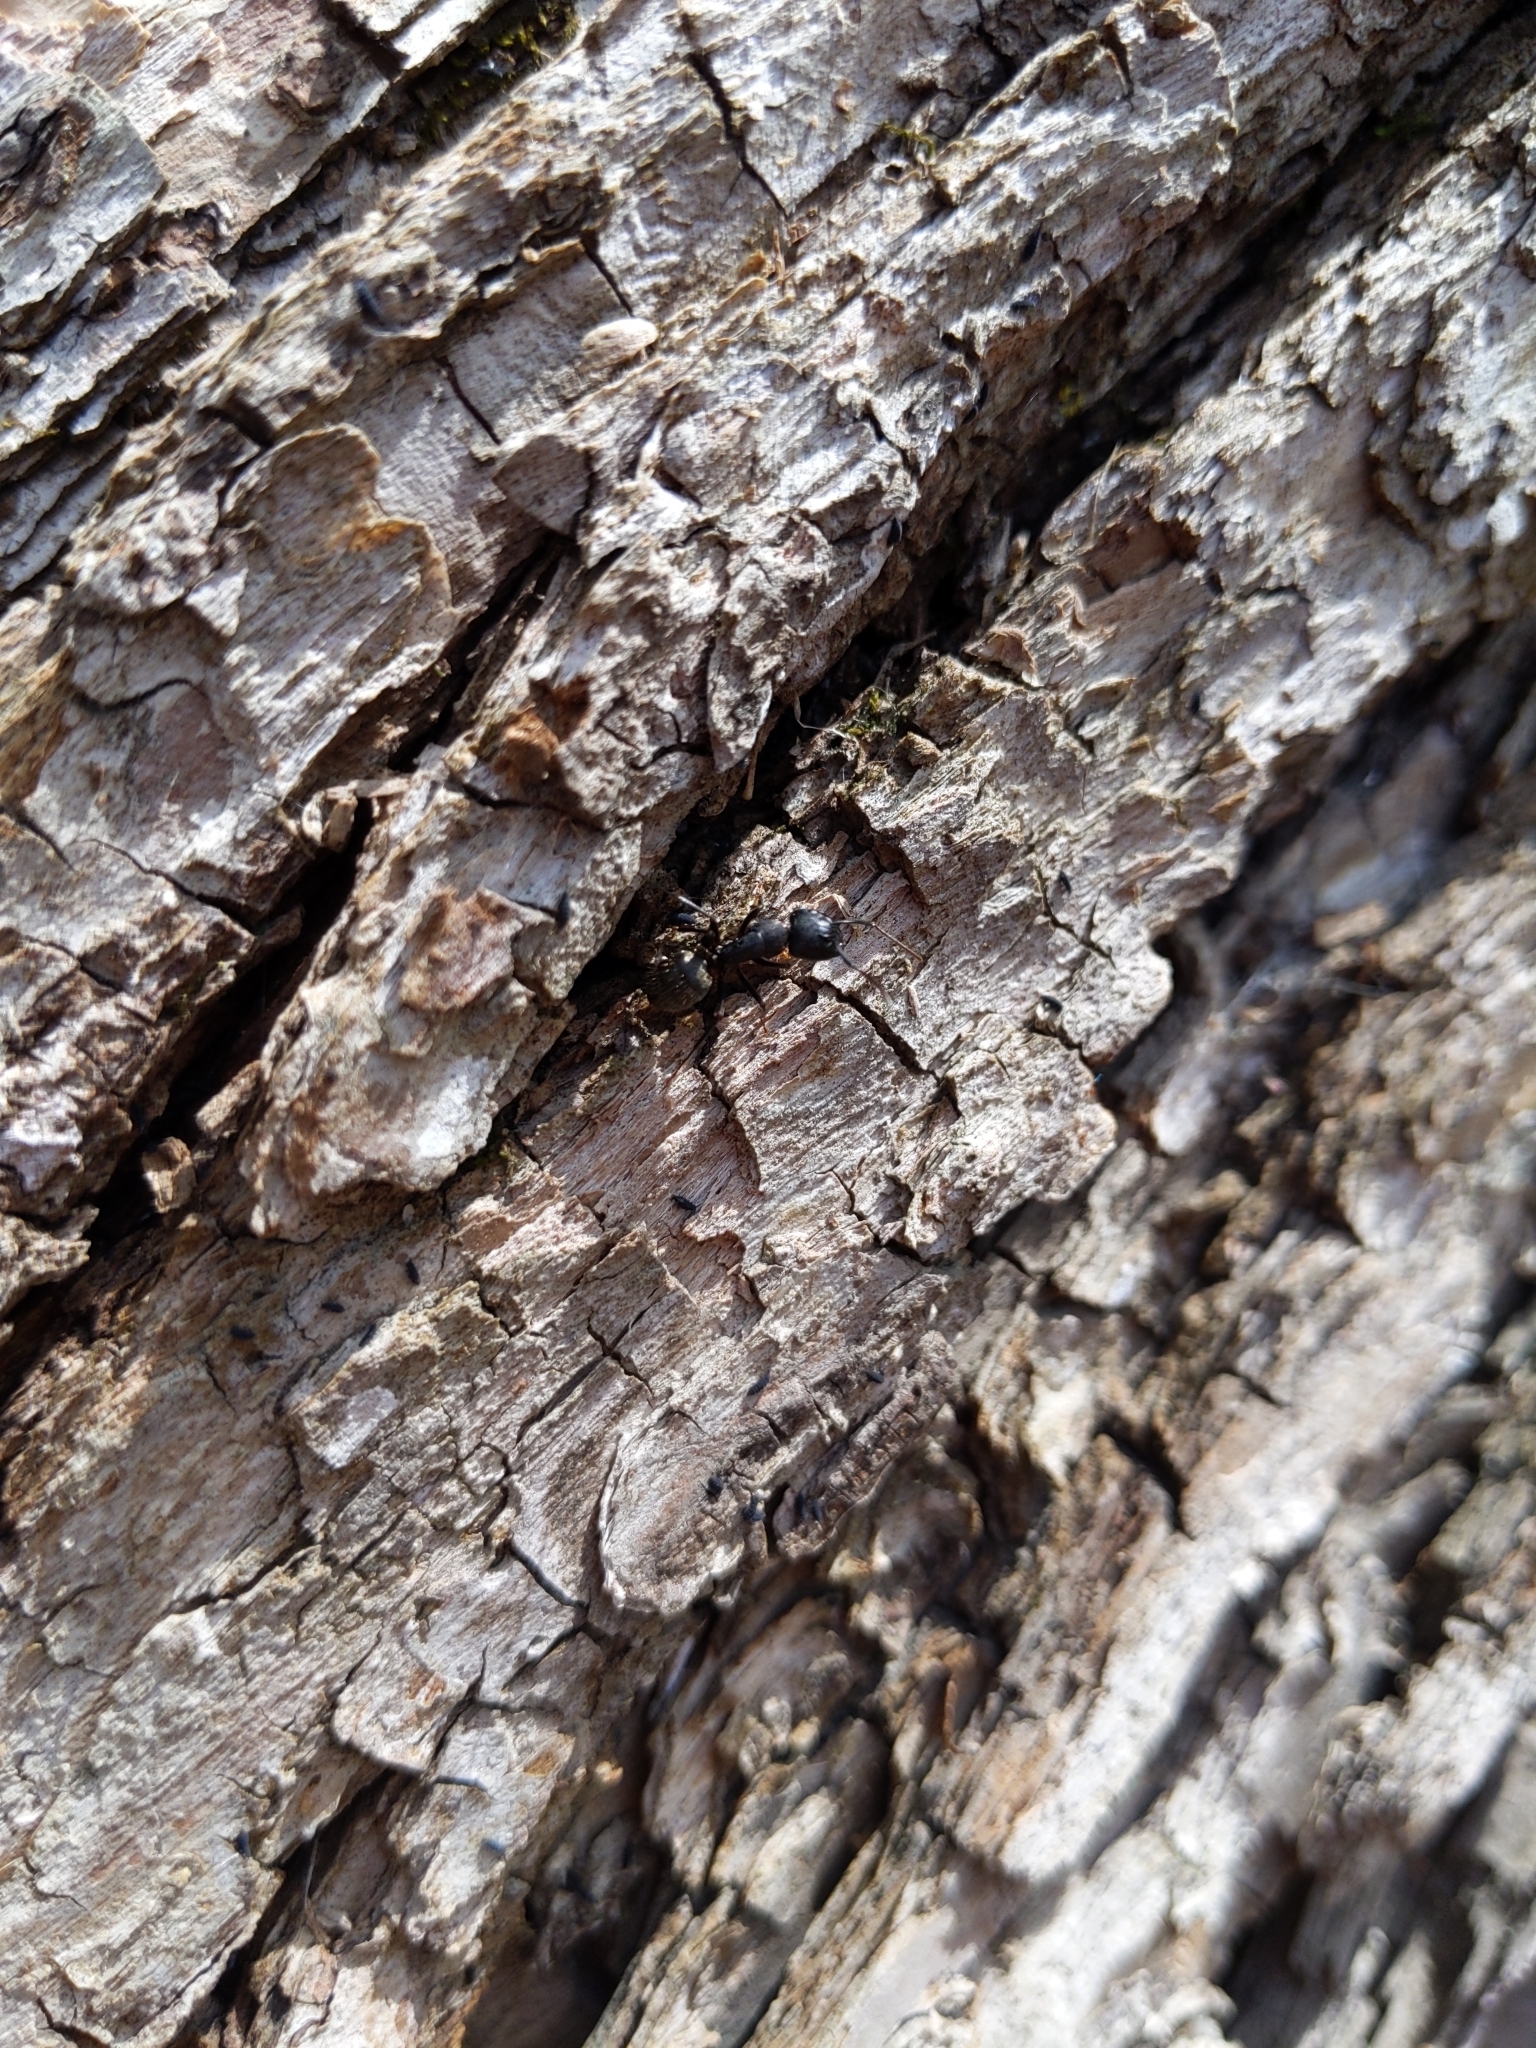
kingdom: Animalia
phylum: Arthropoda
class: Insecta
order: Hymenoptera
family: Formicidae
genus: Camponotus
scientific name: Camponotus pennsylvanicus
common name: Black carpenter ant
